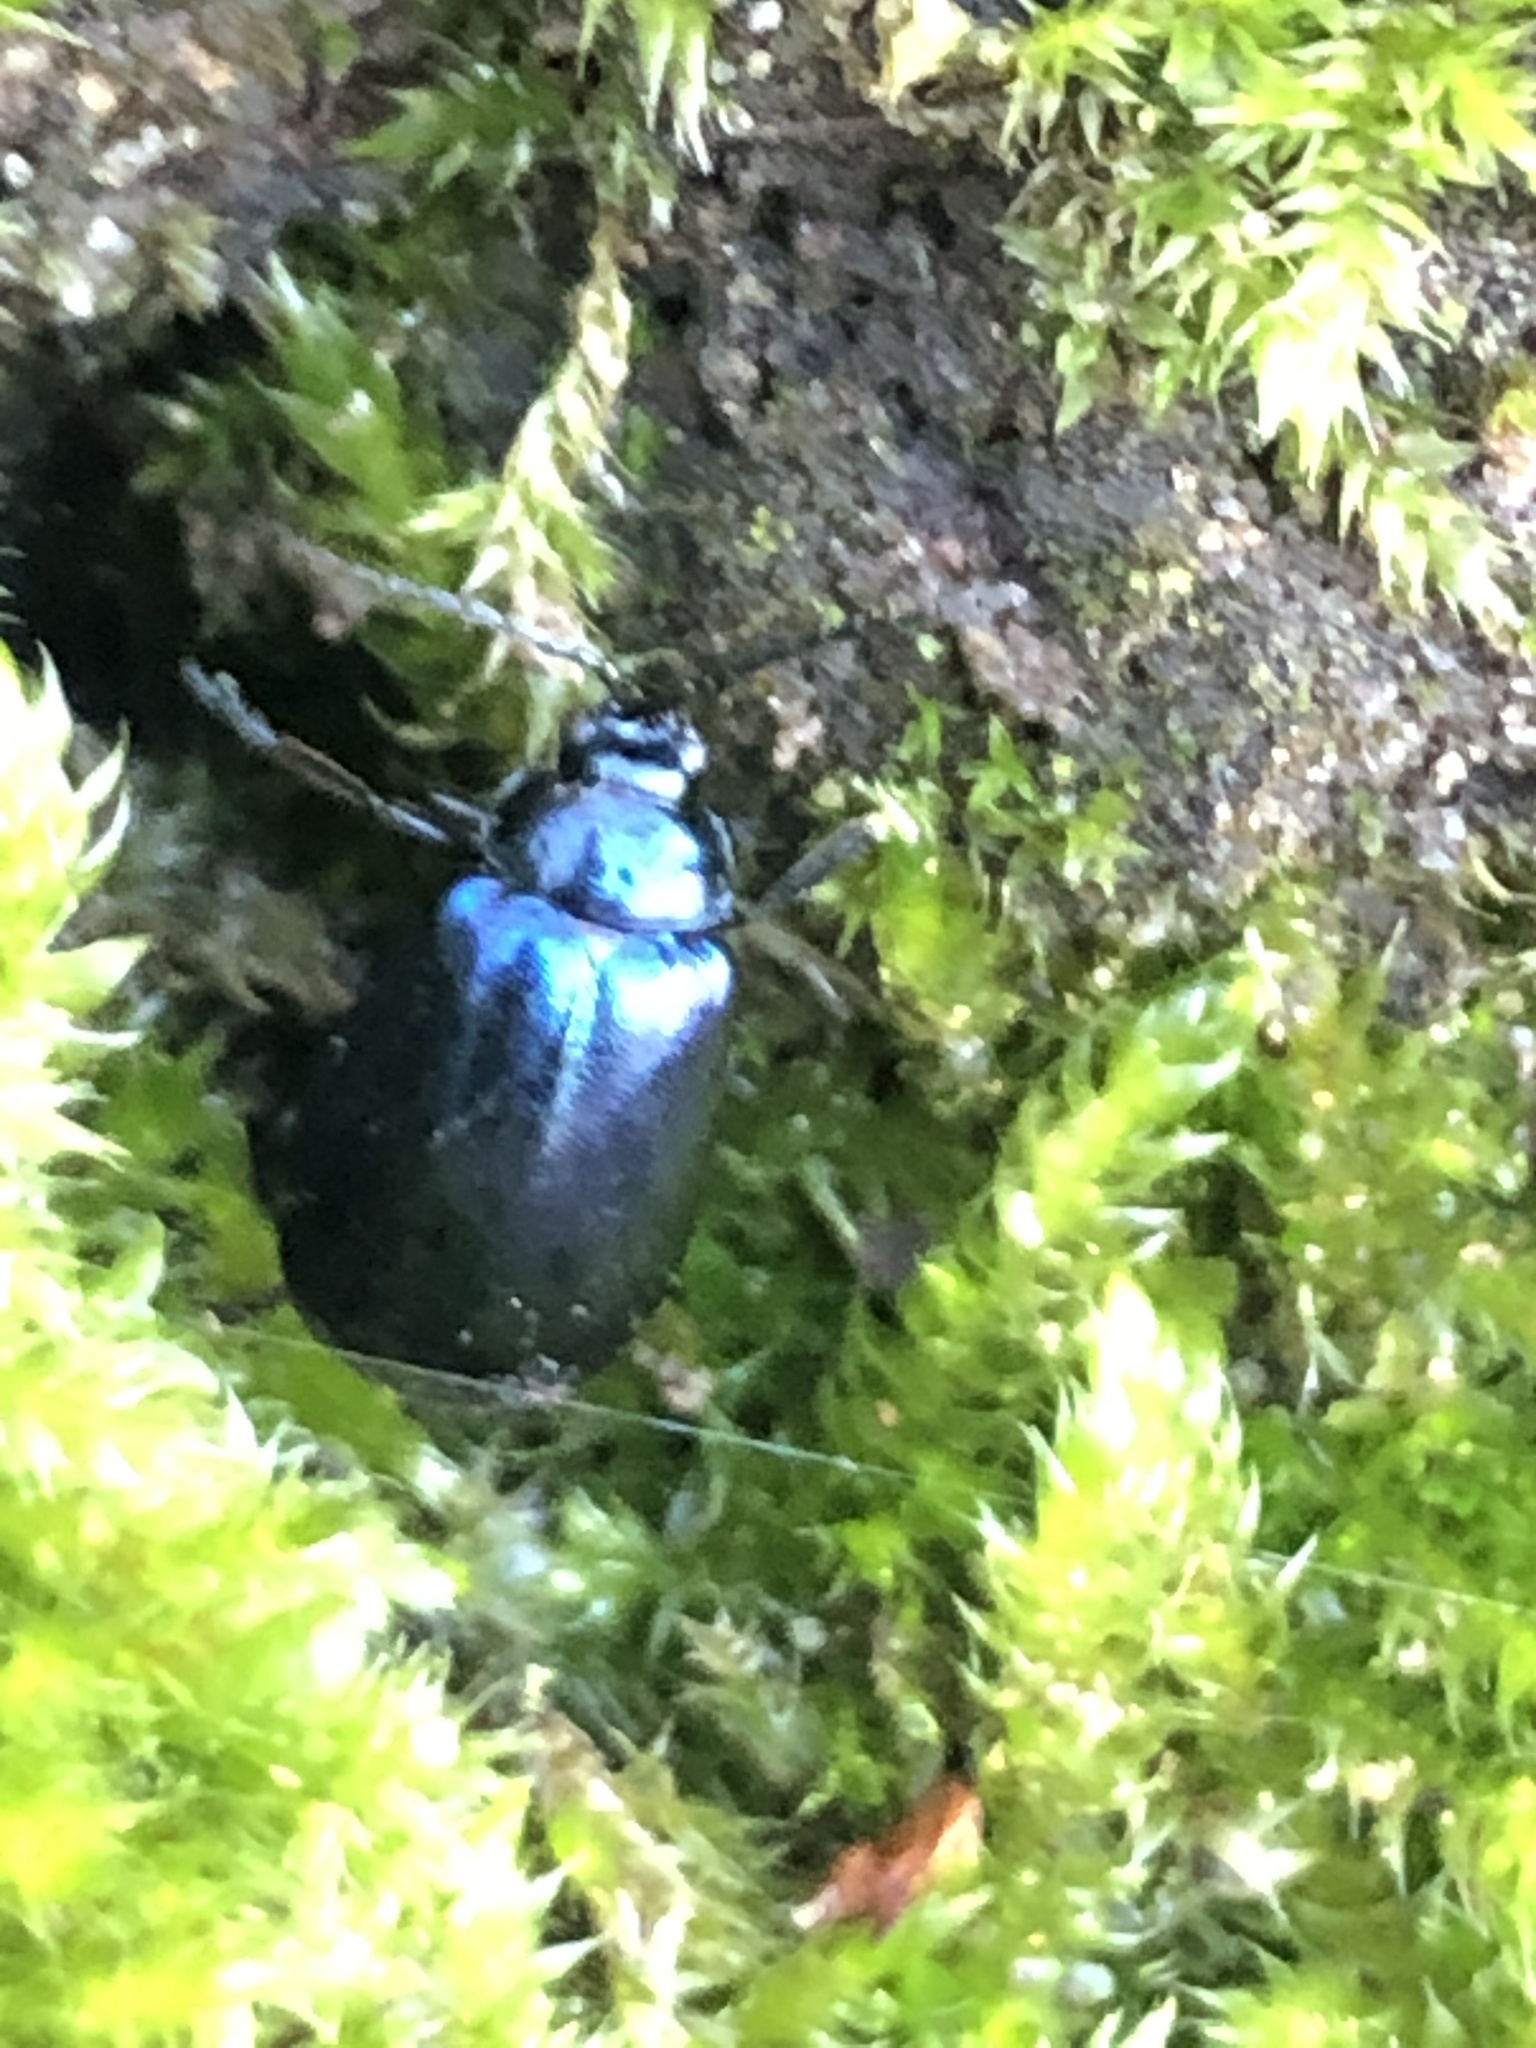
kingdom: Animalia
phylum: Arthropoda
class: Insecta
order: Coleoptera
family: Chrysomelidae
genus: Agelastica
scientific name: Agelastica alni
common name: Alder leaf beetle
